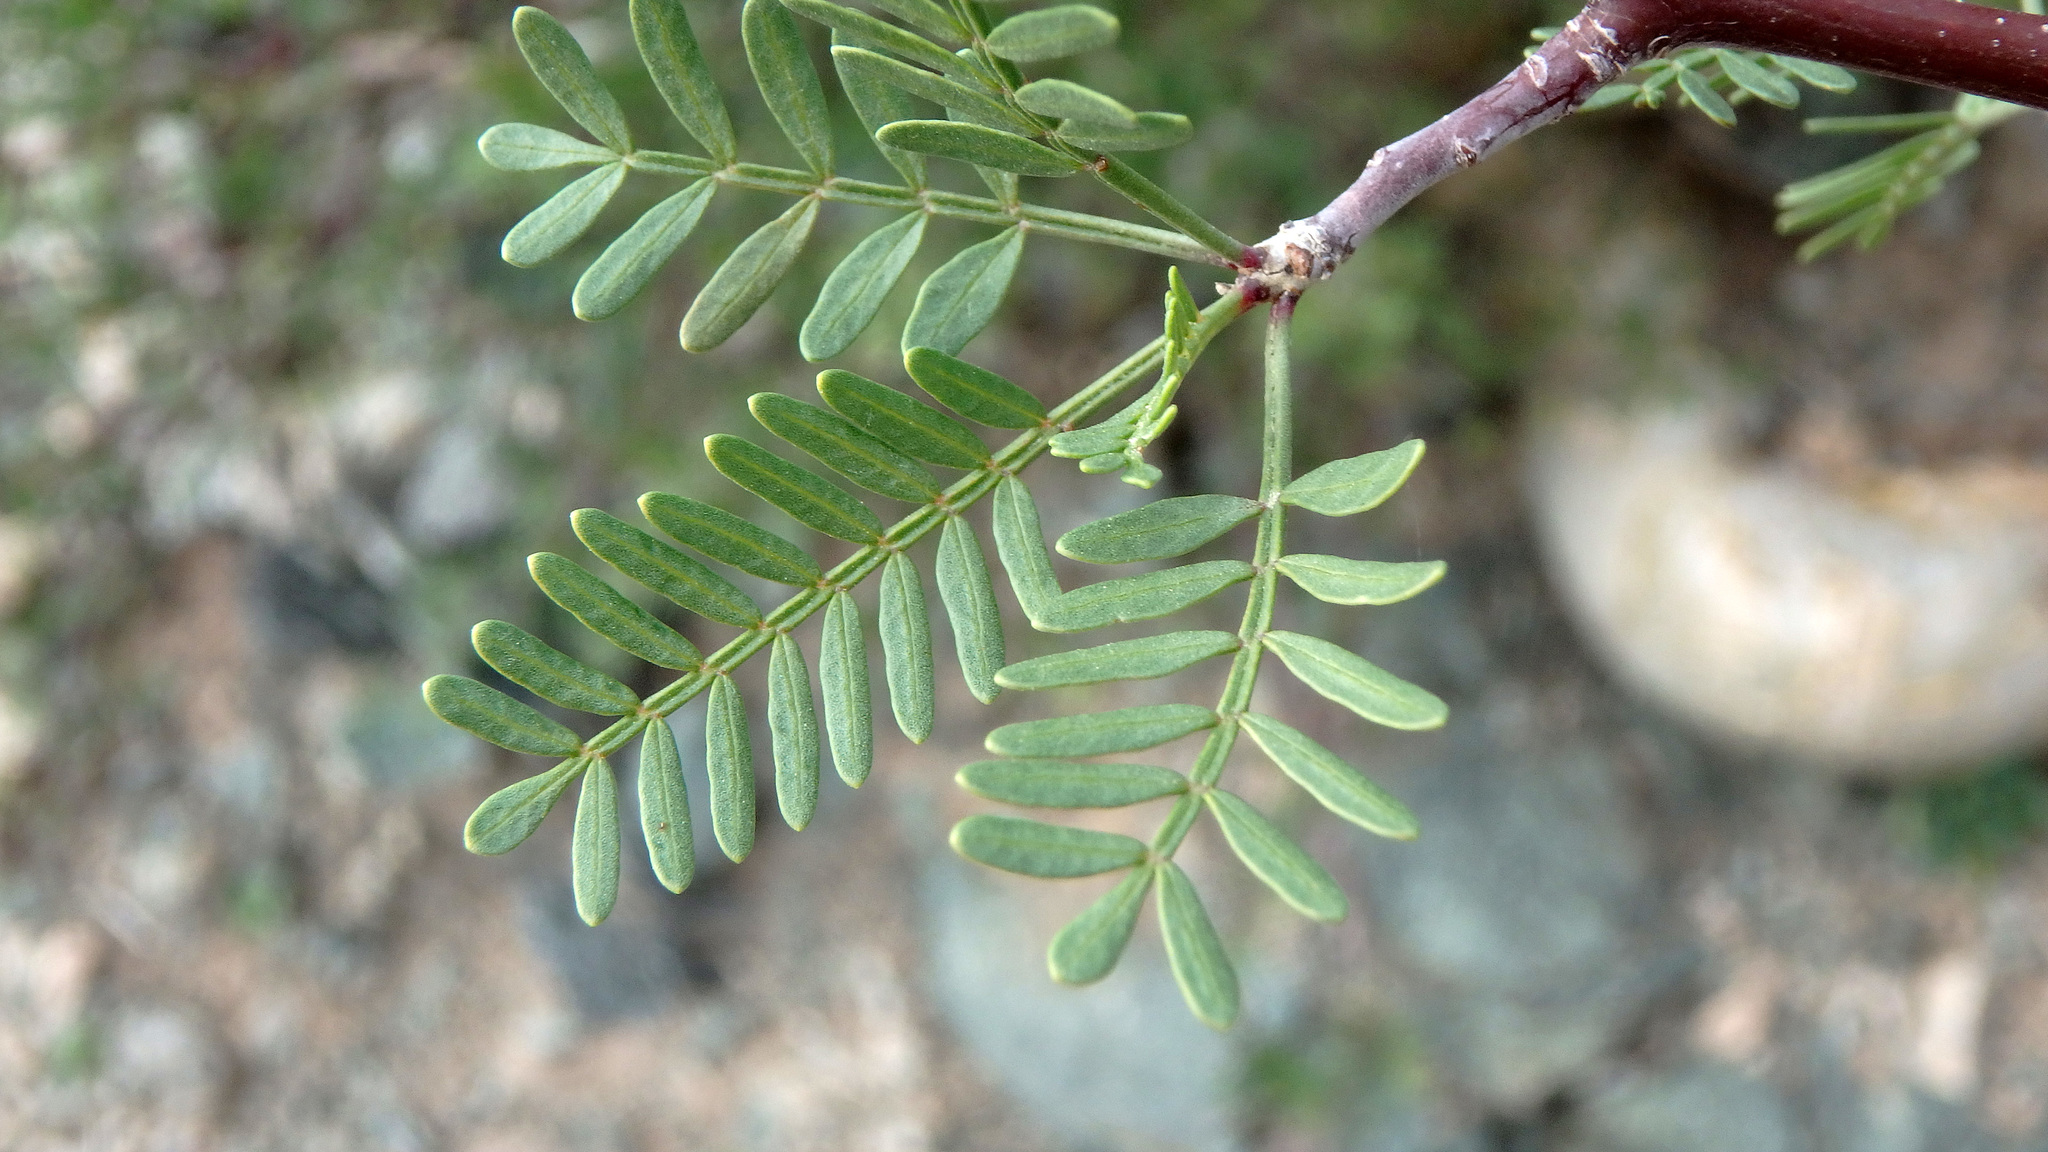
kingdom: Plantae
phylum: Tracheophyta
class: Magnoliopsida
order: Sapindales
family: Burseraceae
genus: Bursera
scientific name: Bursera microphylla
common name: Elephant tree
